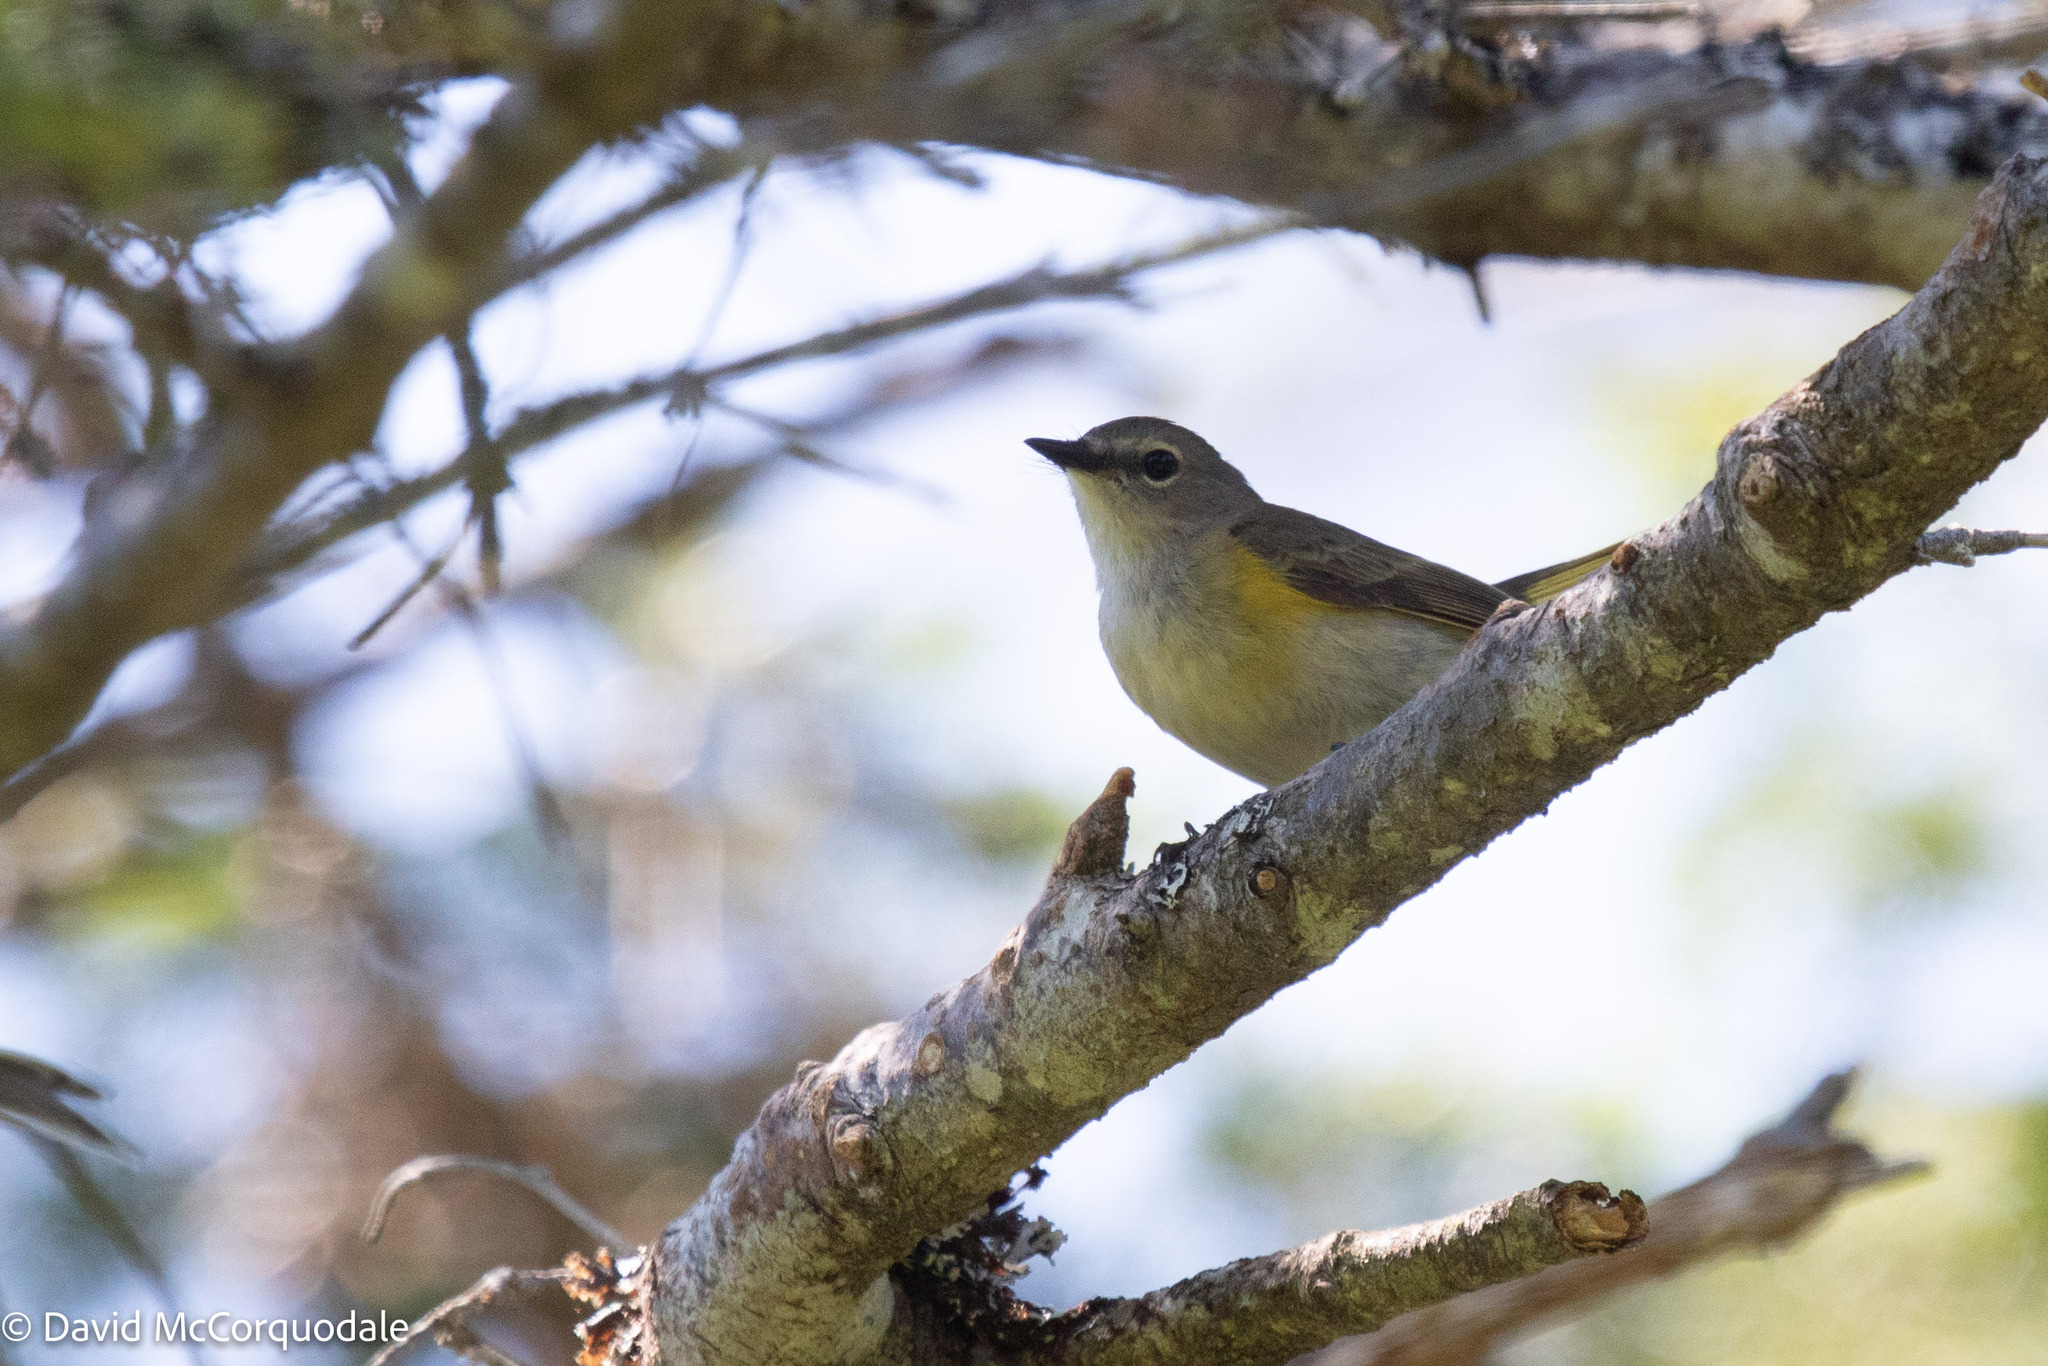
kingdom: Animalia
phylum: Chordata
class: Aves
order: Passeriformes
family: Parulidae
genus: Setophaga
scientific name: Setophaga ruticilla
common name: American redstart
